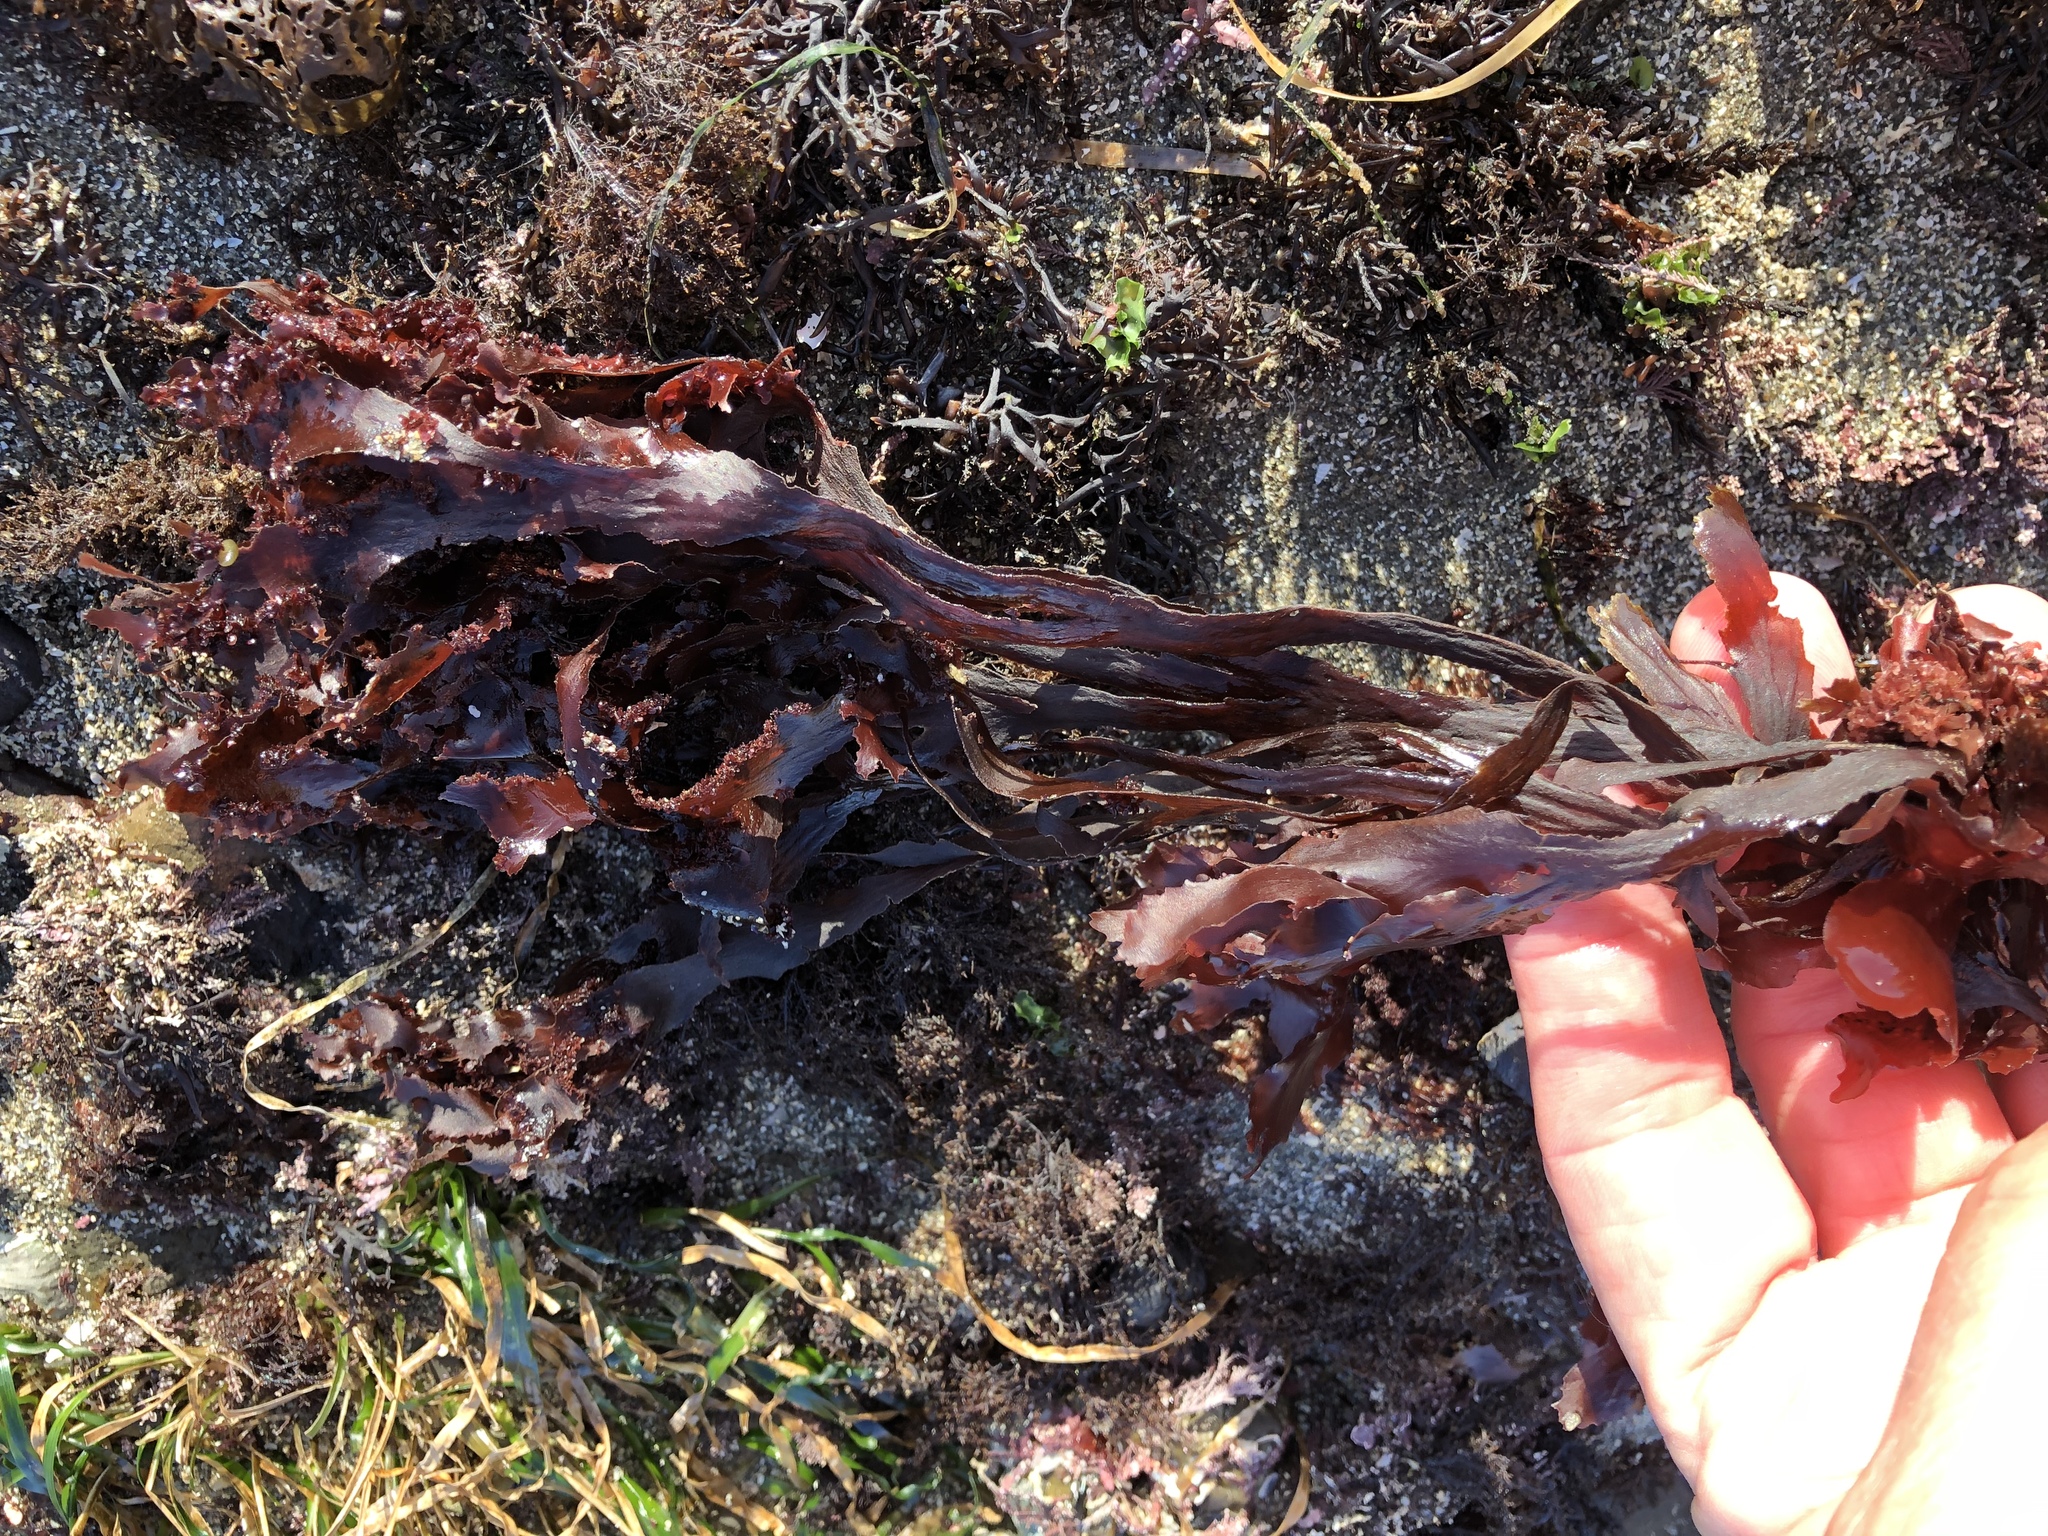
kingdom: Plantae
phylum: Rhodophyta
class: Florideophyceae
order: Ceramiales
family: Delesseriaceae
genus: Cryptopleura
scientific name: Cryptopleura ruprechtiana
